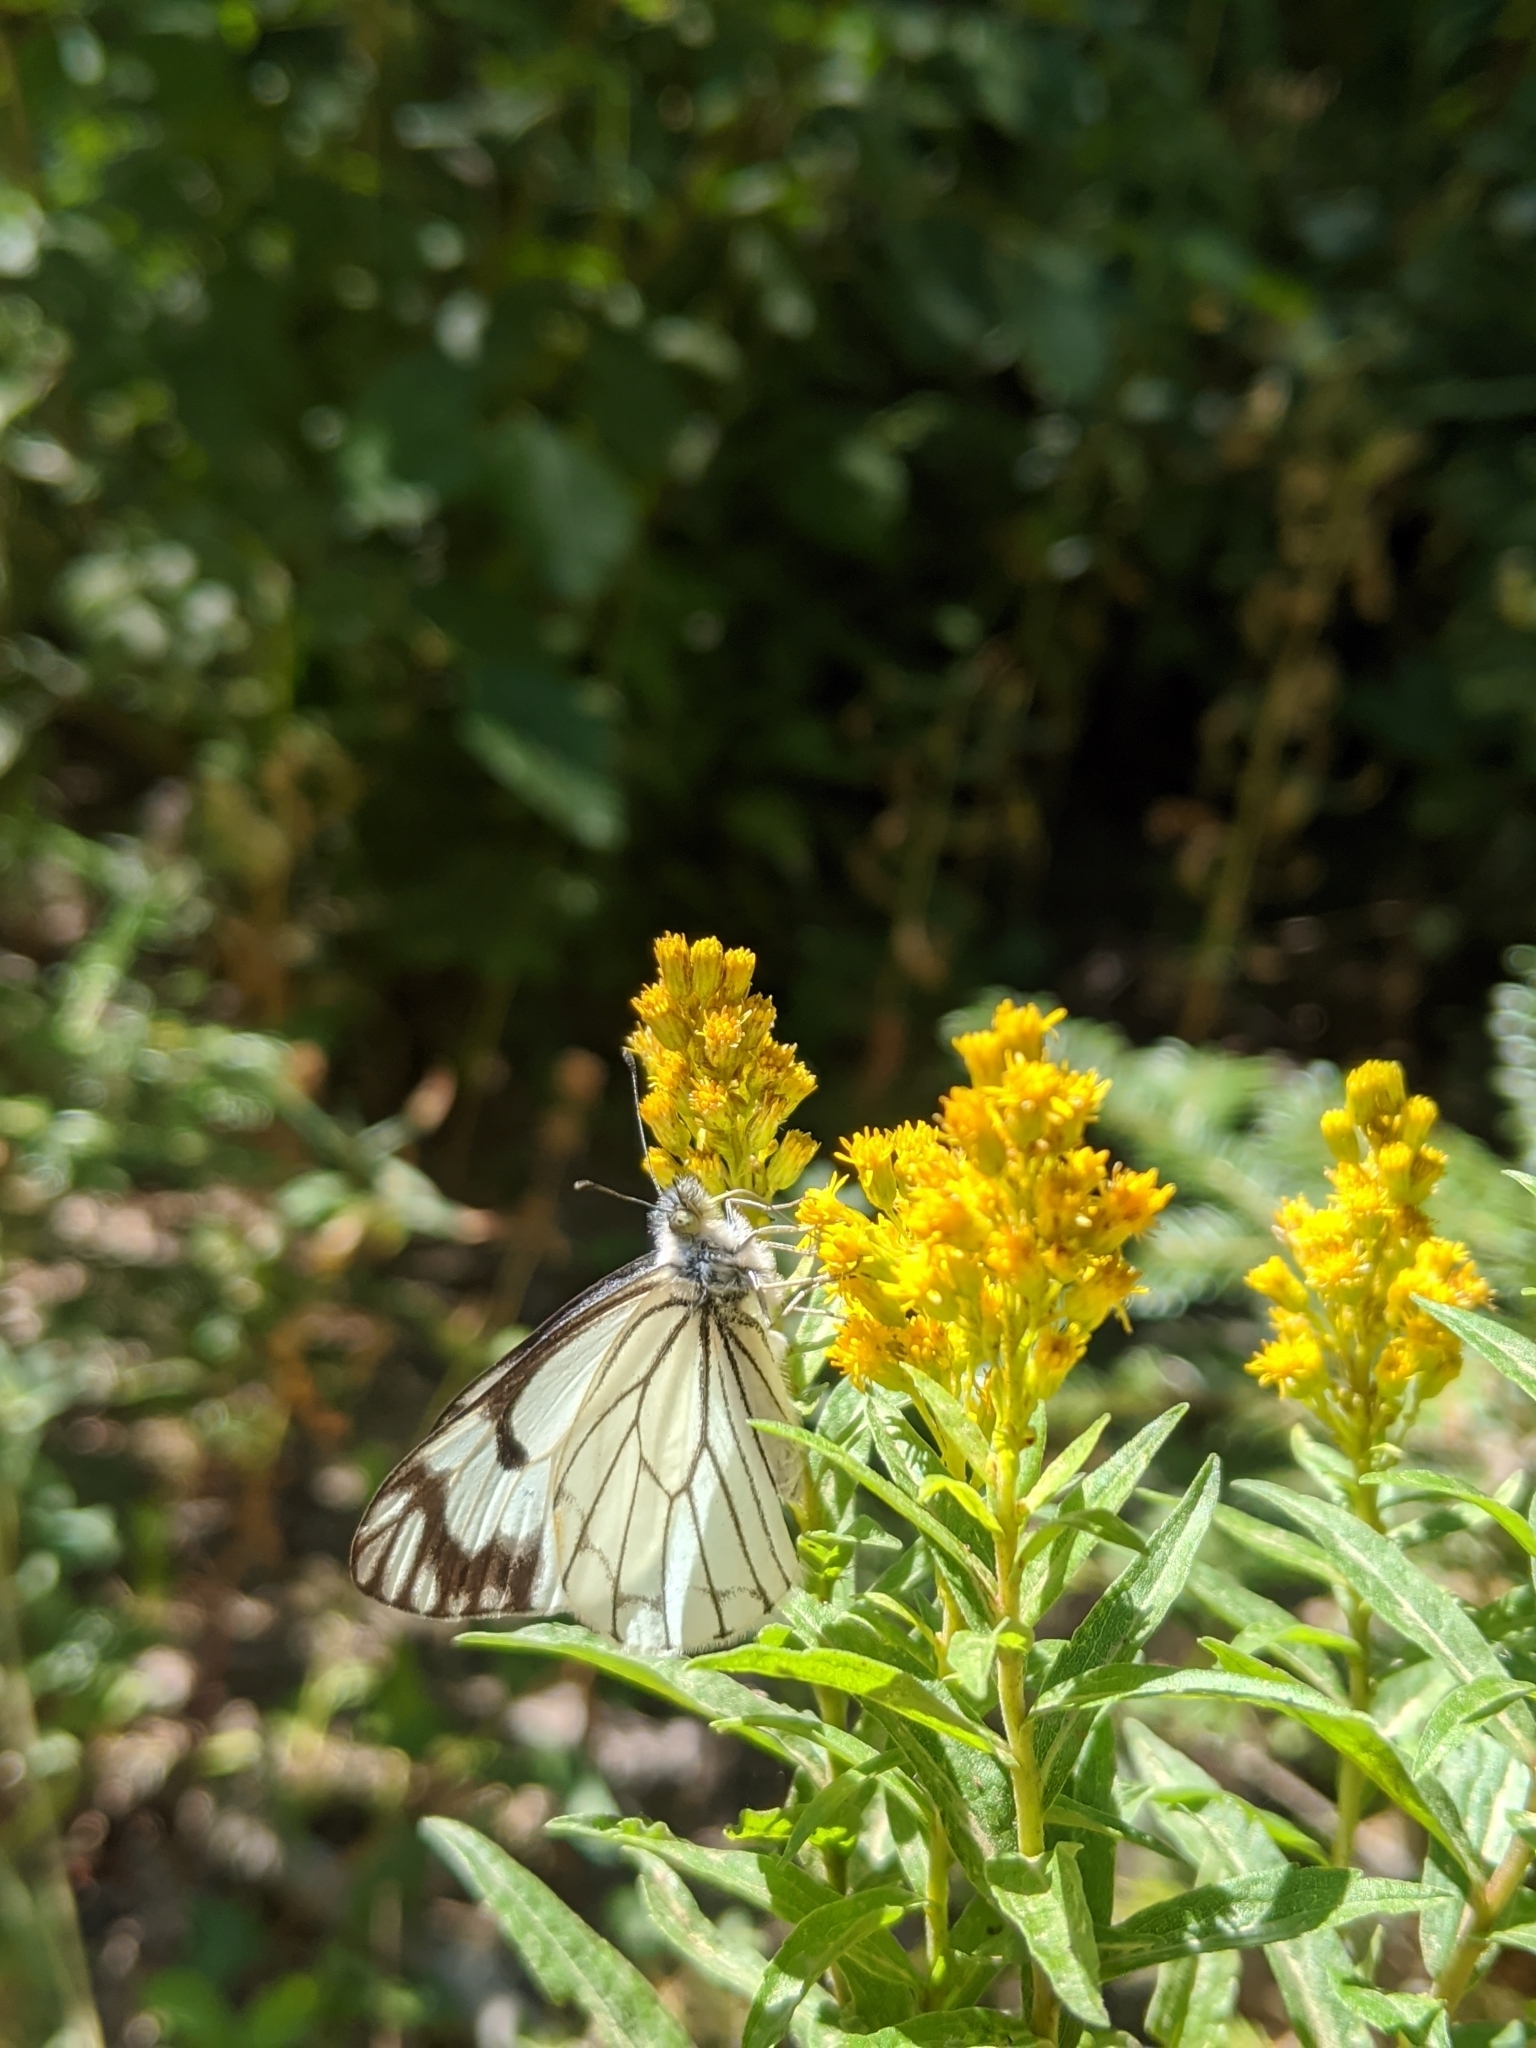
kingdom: Animalia
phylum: Arthropoda
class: Insecta
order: Lepidoptera
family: Pieridae
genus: Neophasia
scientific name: Neophasia menapia
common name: Pine white
